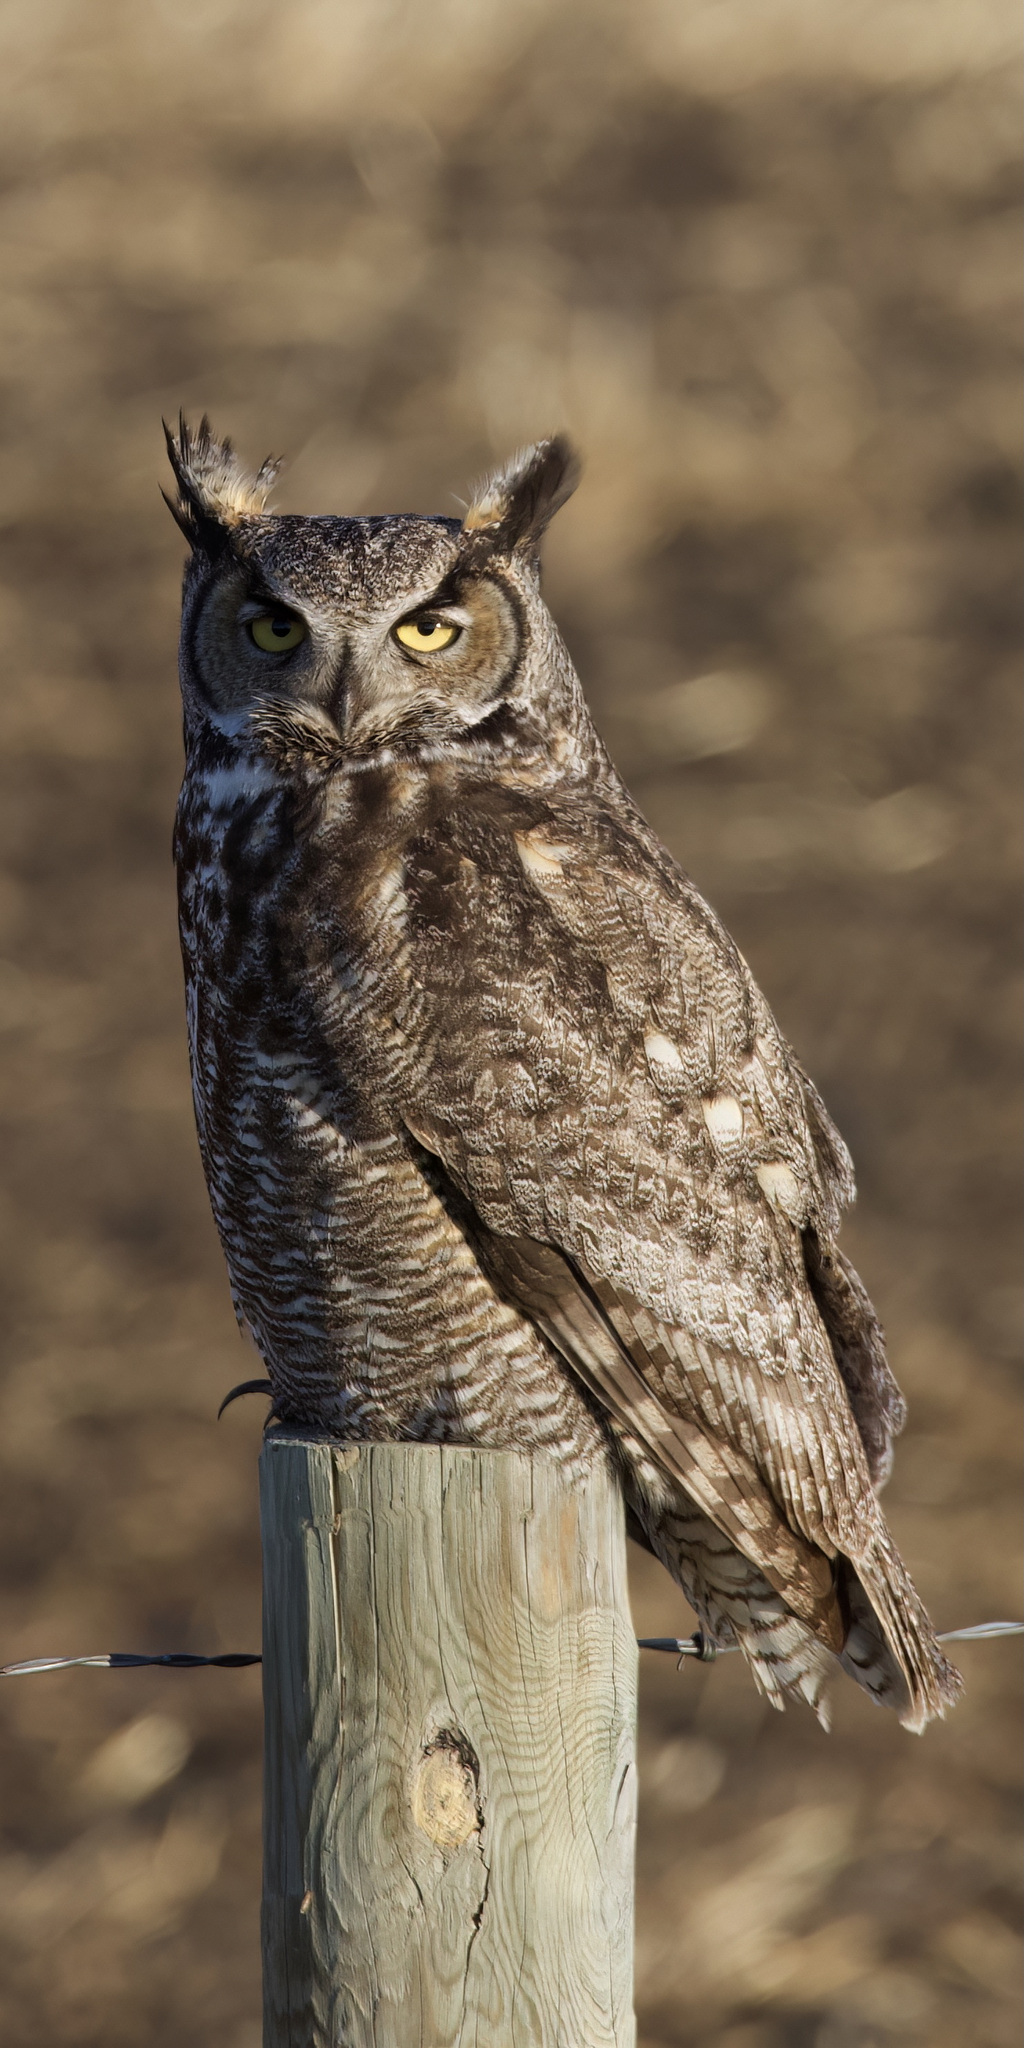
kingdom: Animalia
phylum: Chordata
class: Aves
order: Strigiformes
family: Strigidae
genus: Bubo
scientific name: Bubo virginianus
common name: Great horned owl
